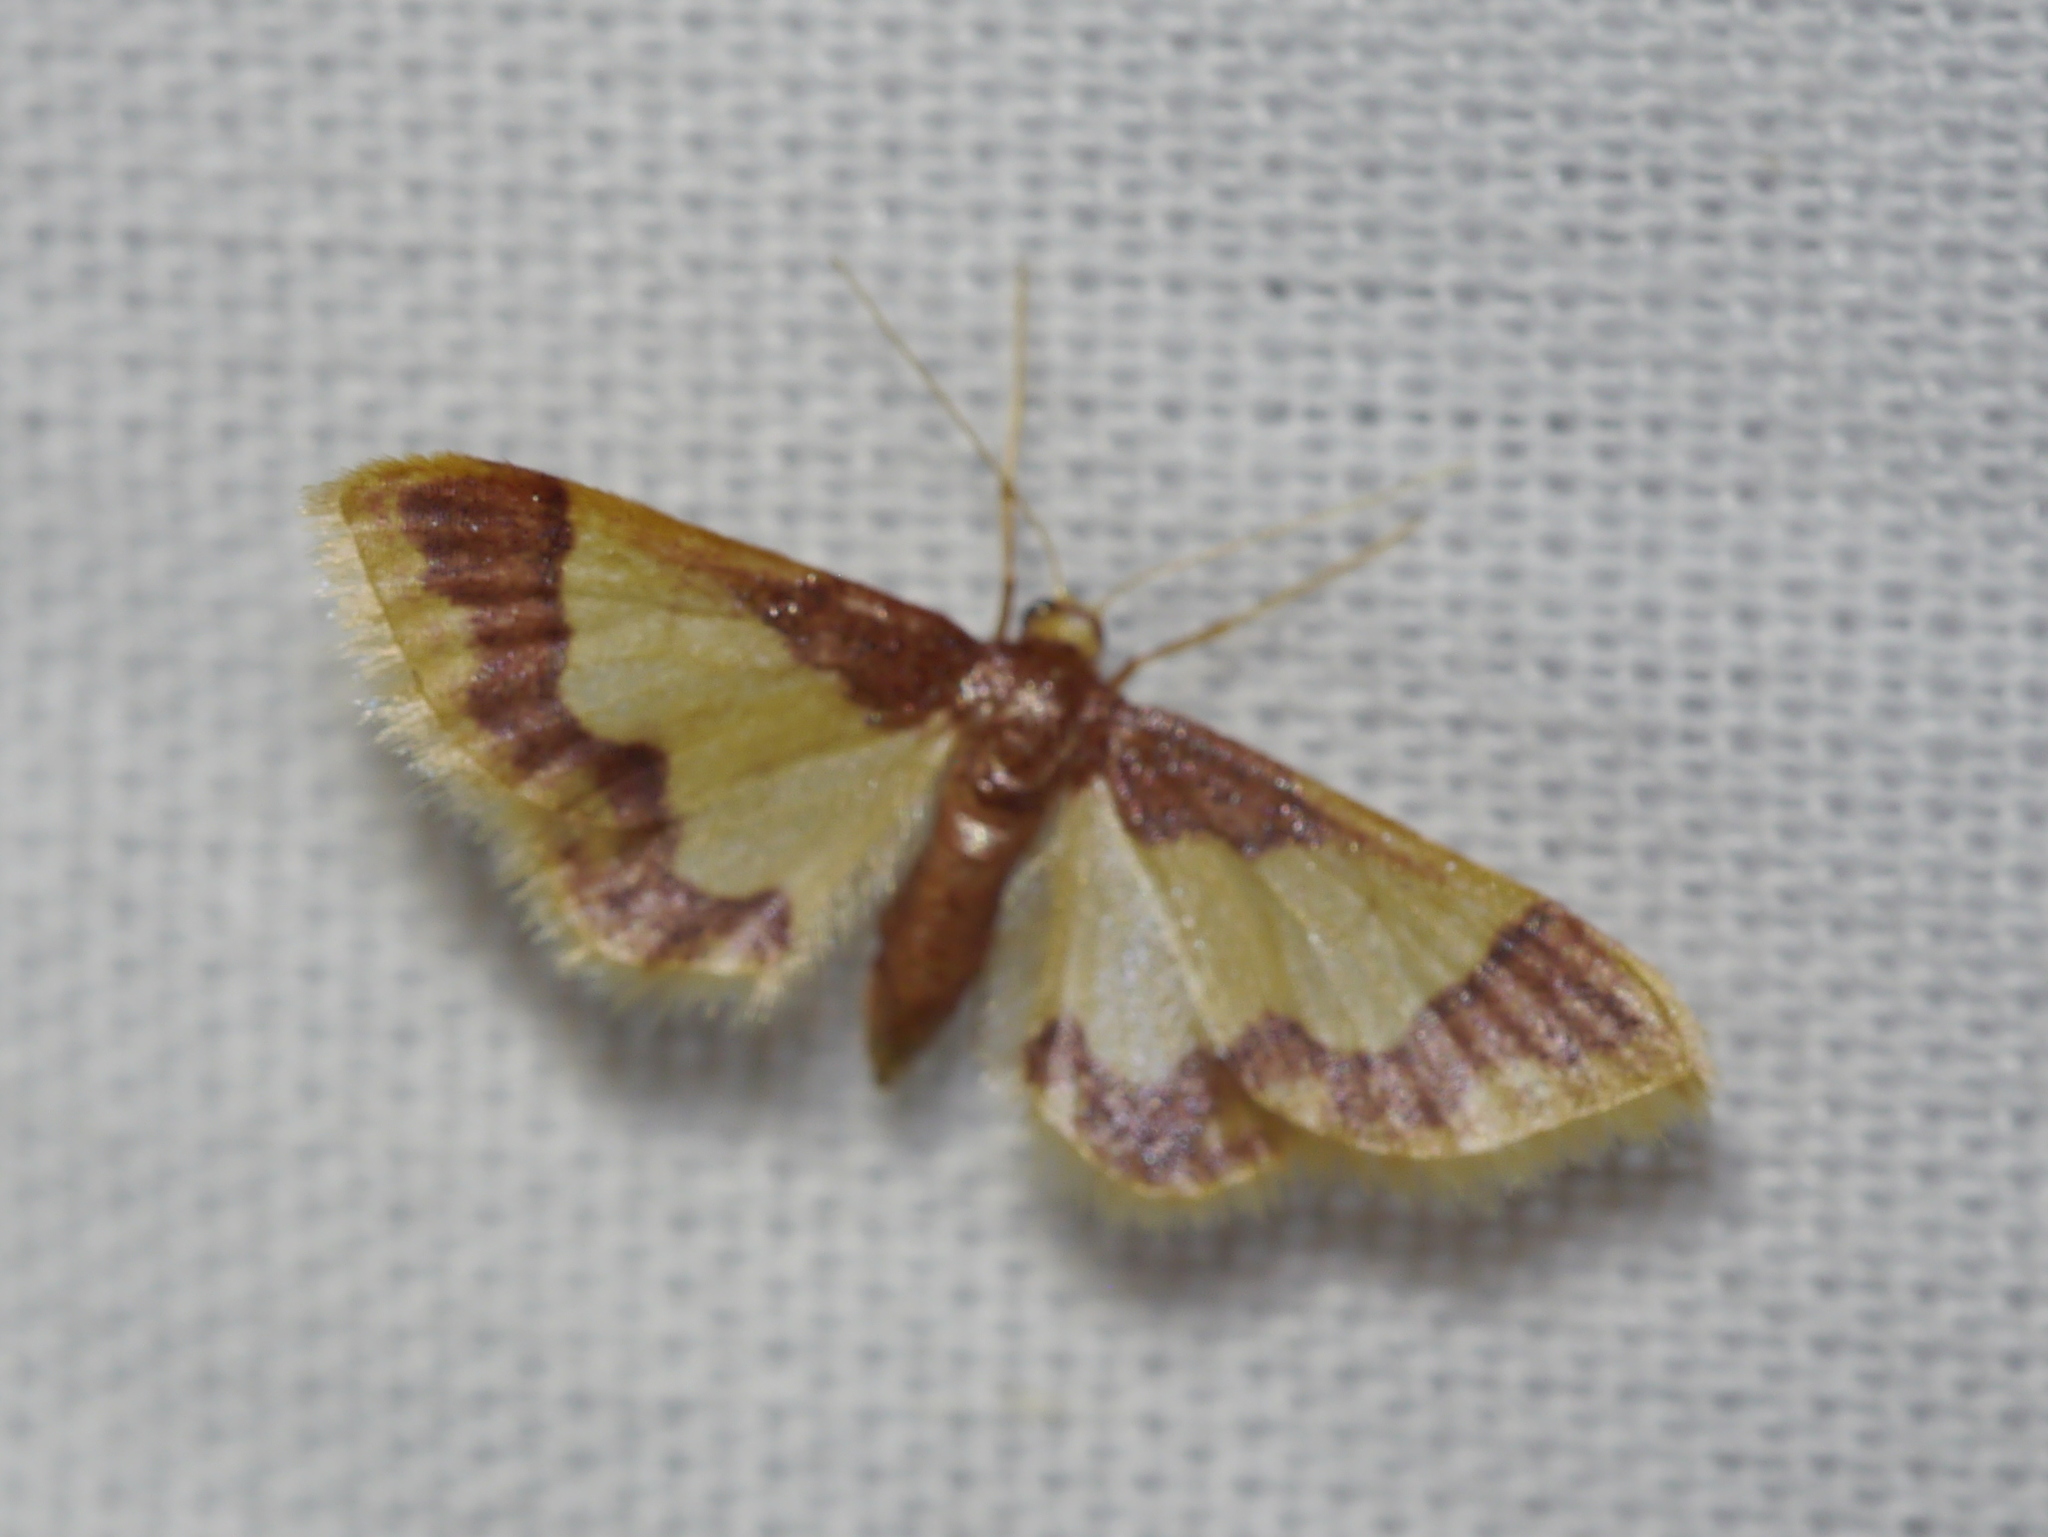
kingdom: Animalia
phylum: Arthropoda
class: Insecta
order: Lepidoptera
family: Geometridae
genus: Idaea
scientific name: Idaea basinta
